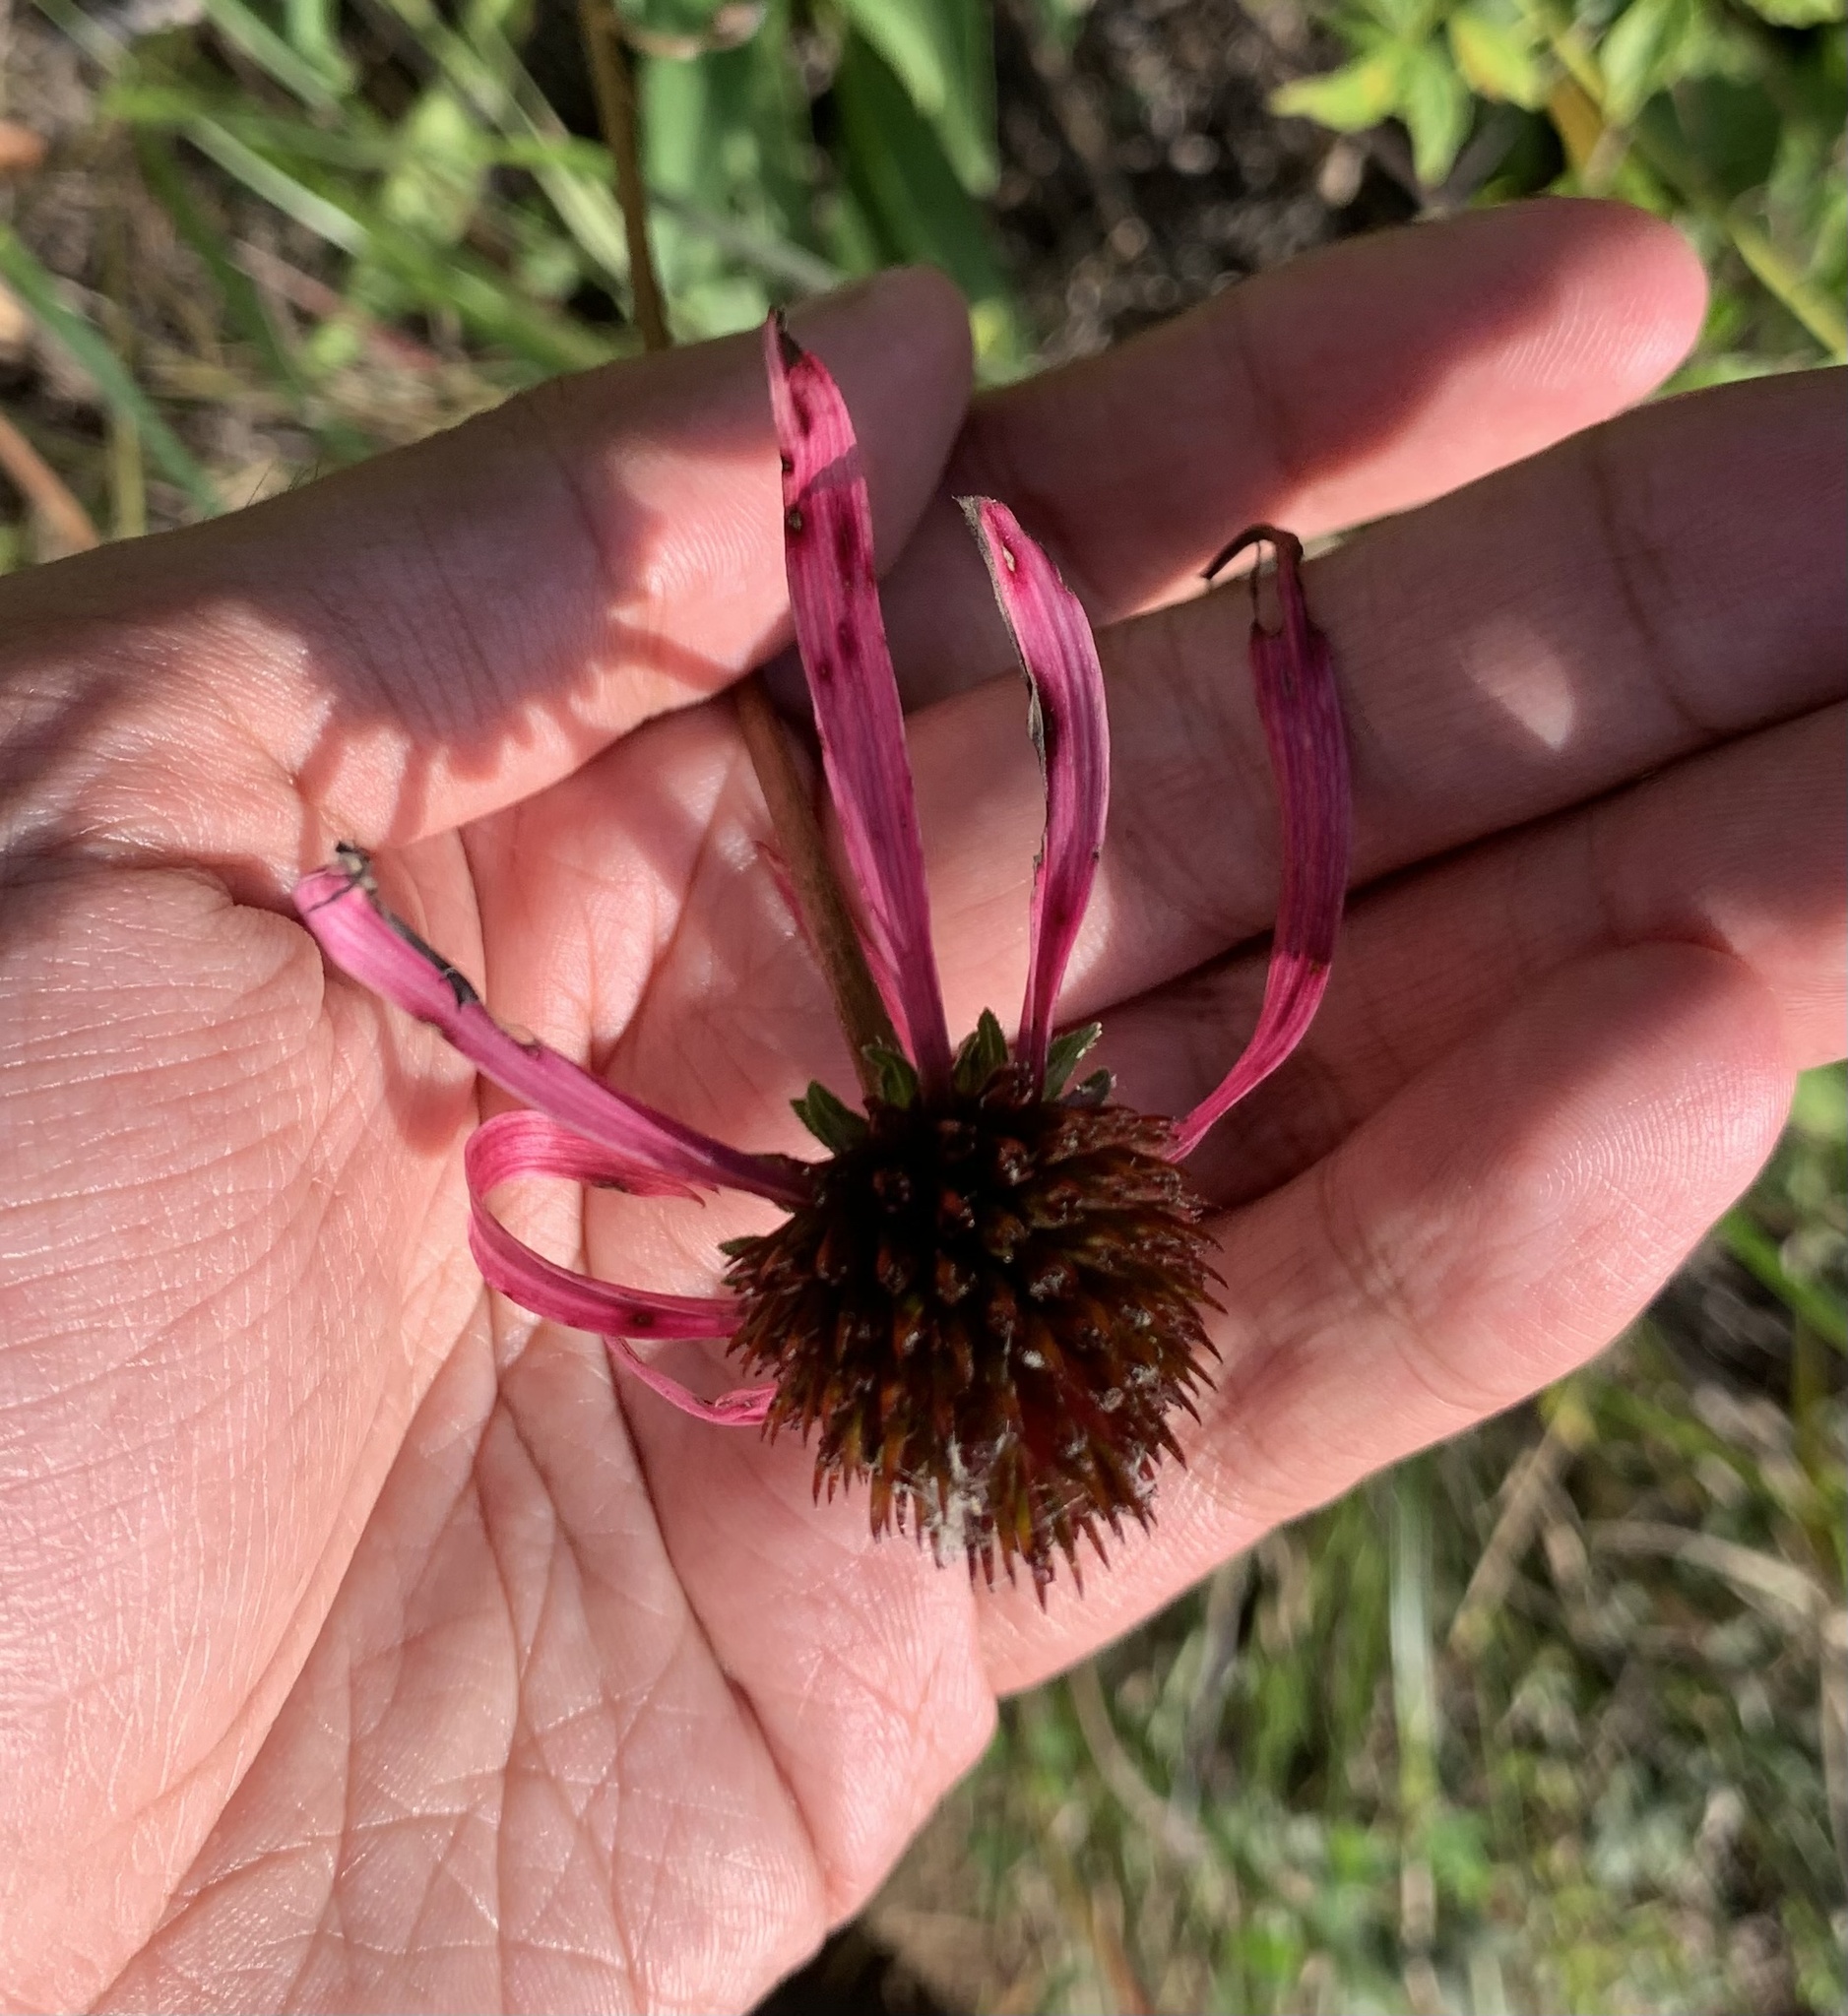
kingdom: Plantae
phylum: Tracheophyta
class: Magnoliopsida
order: Asterales
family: Asteraceae
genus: Echinacea
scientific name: Echinacea laevigata
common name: Smooth coneflower
